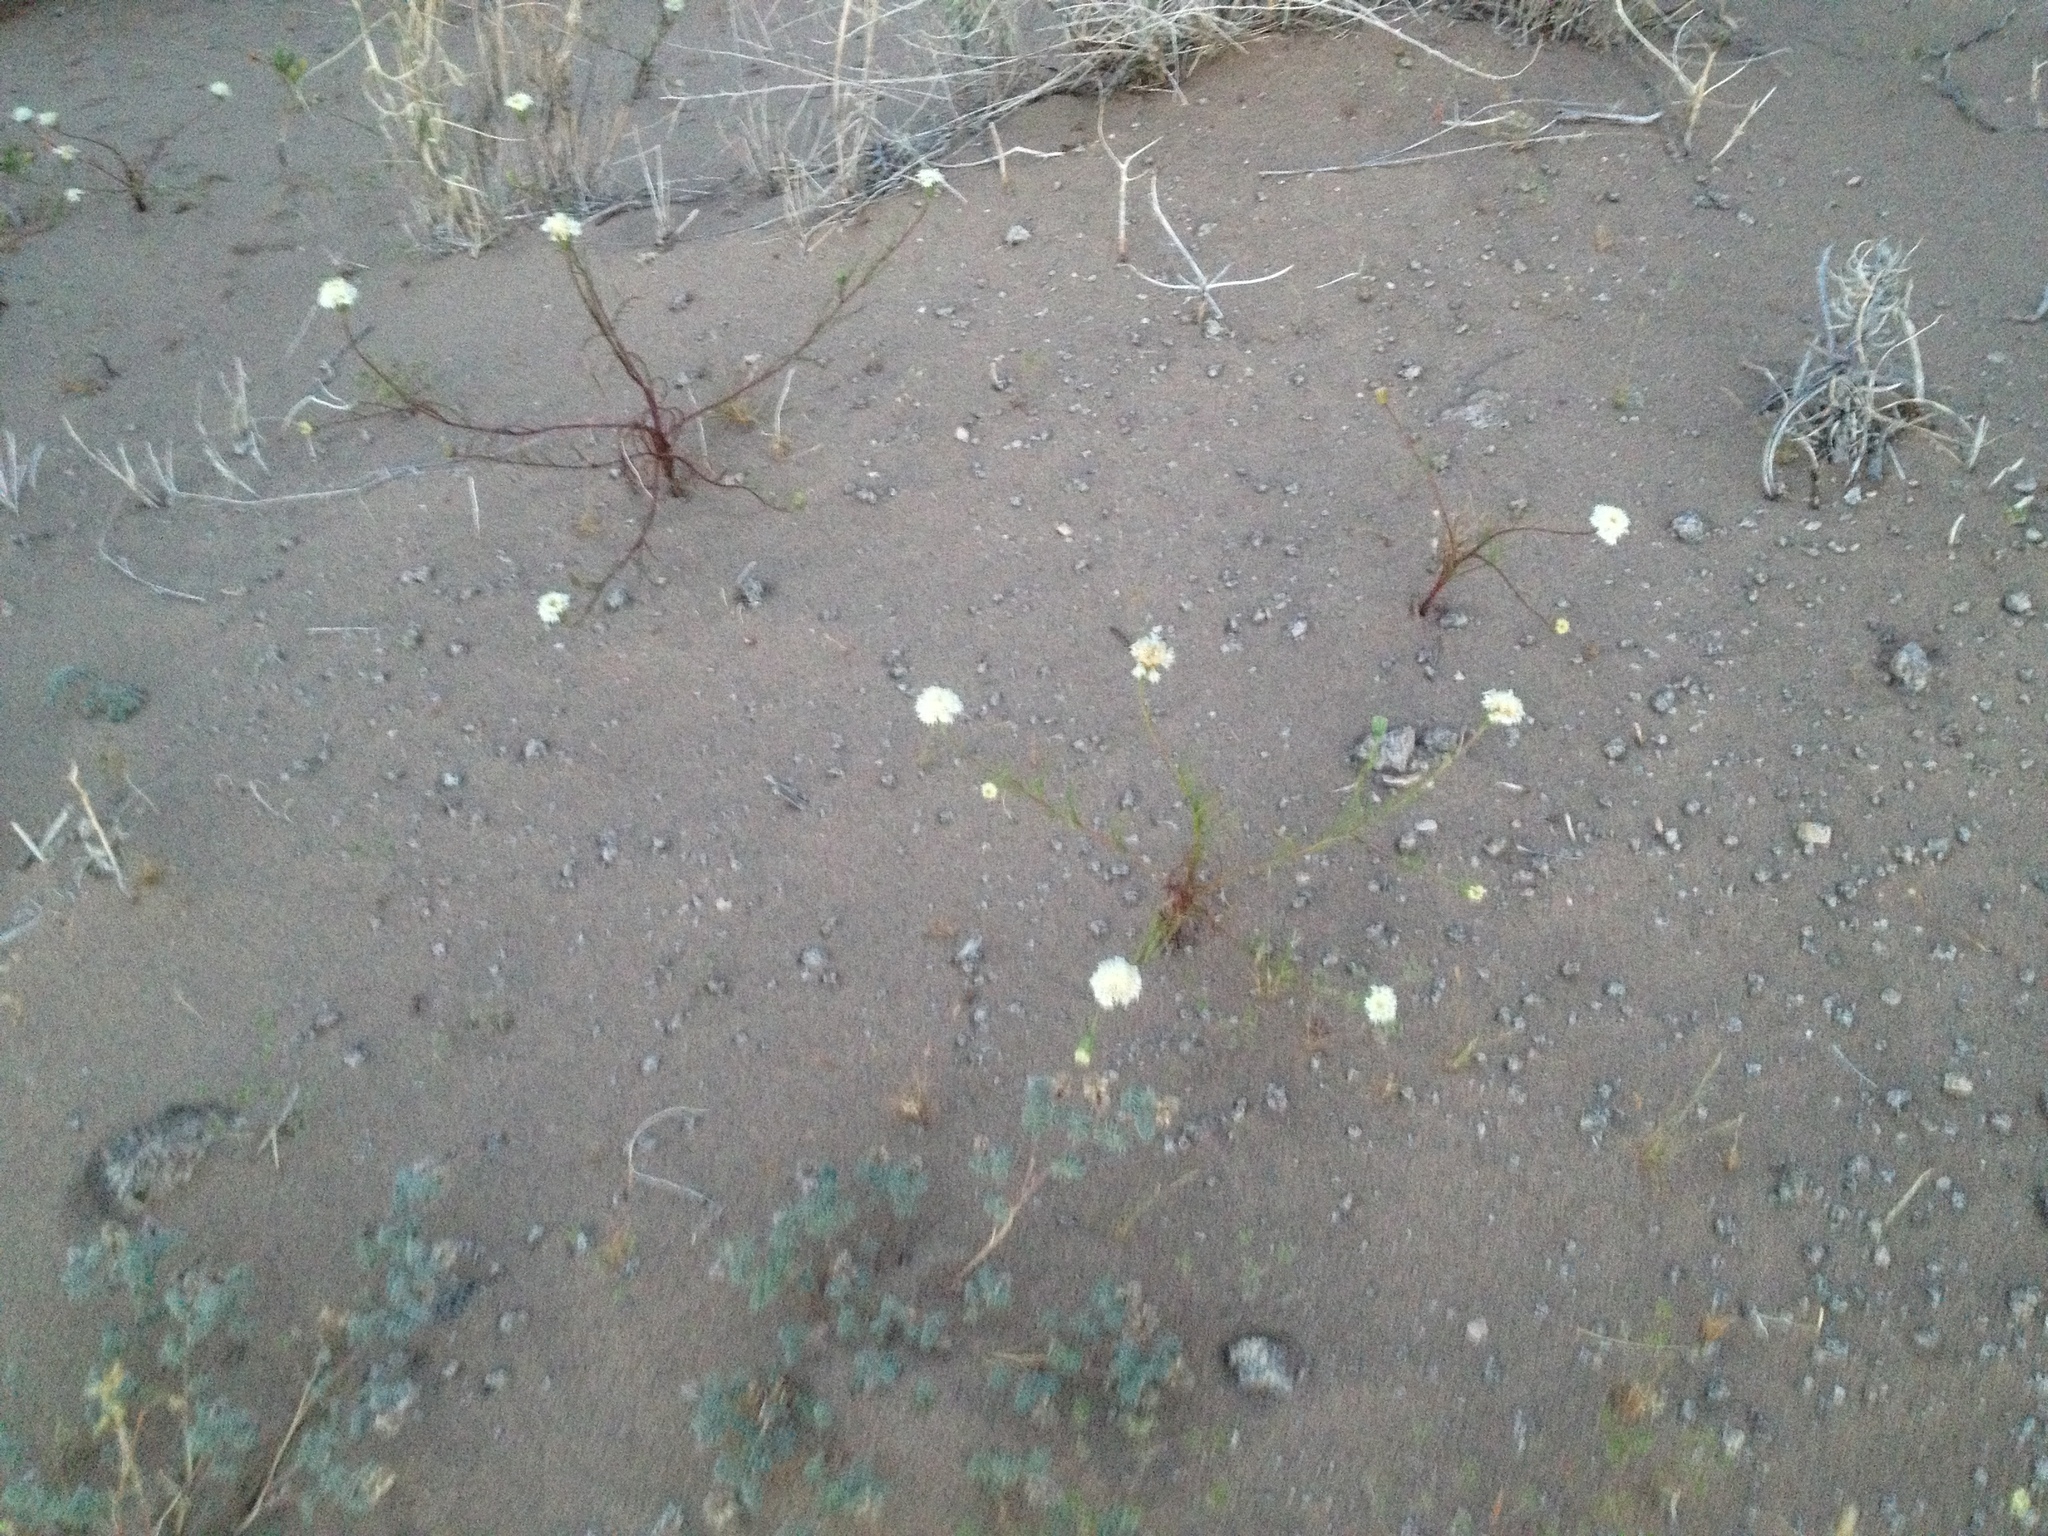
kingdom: Plantae
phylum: Tracheophyta
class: Magnoliopsida
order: Asterales
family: Asteraceae
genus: Chaenactis
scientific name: Chaenactis fremontii
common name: Fremont pincushion
